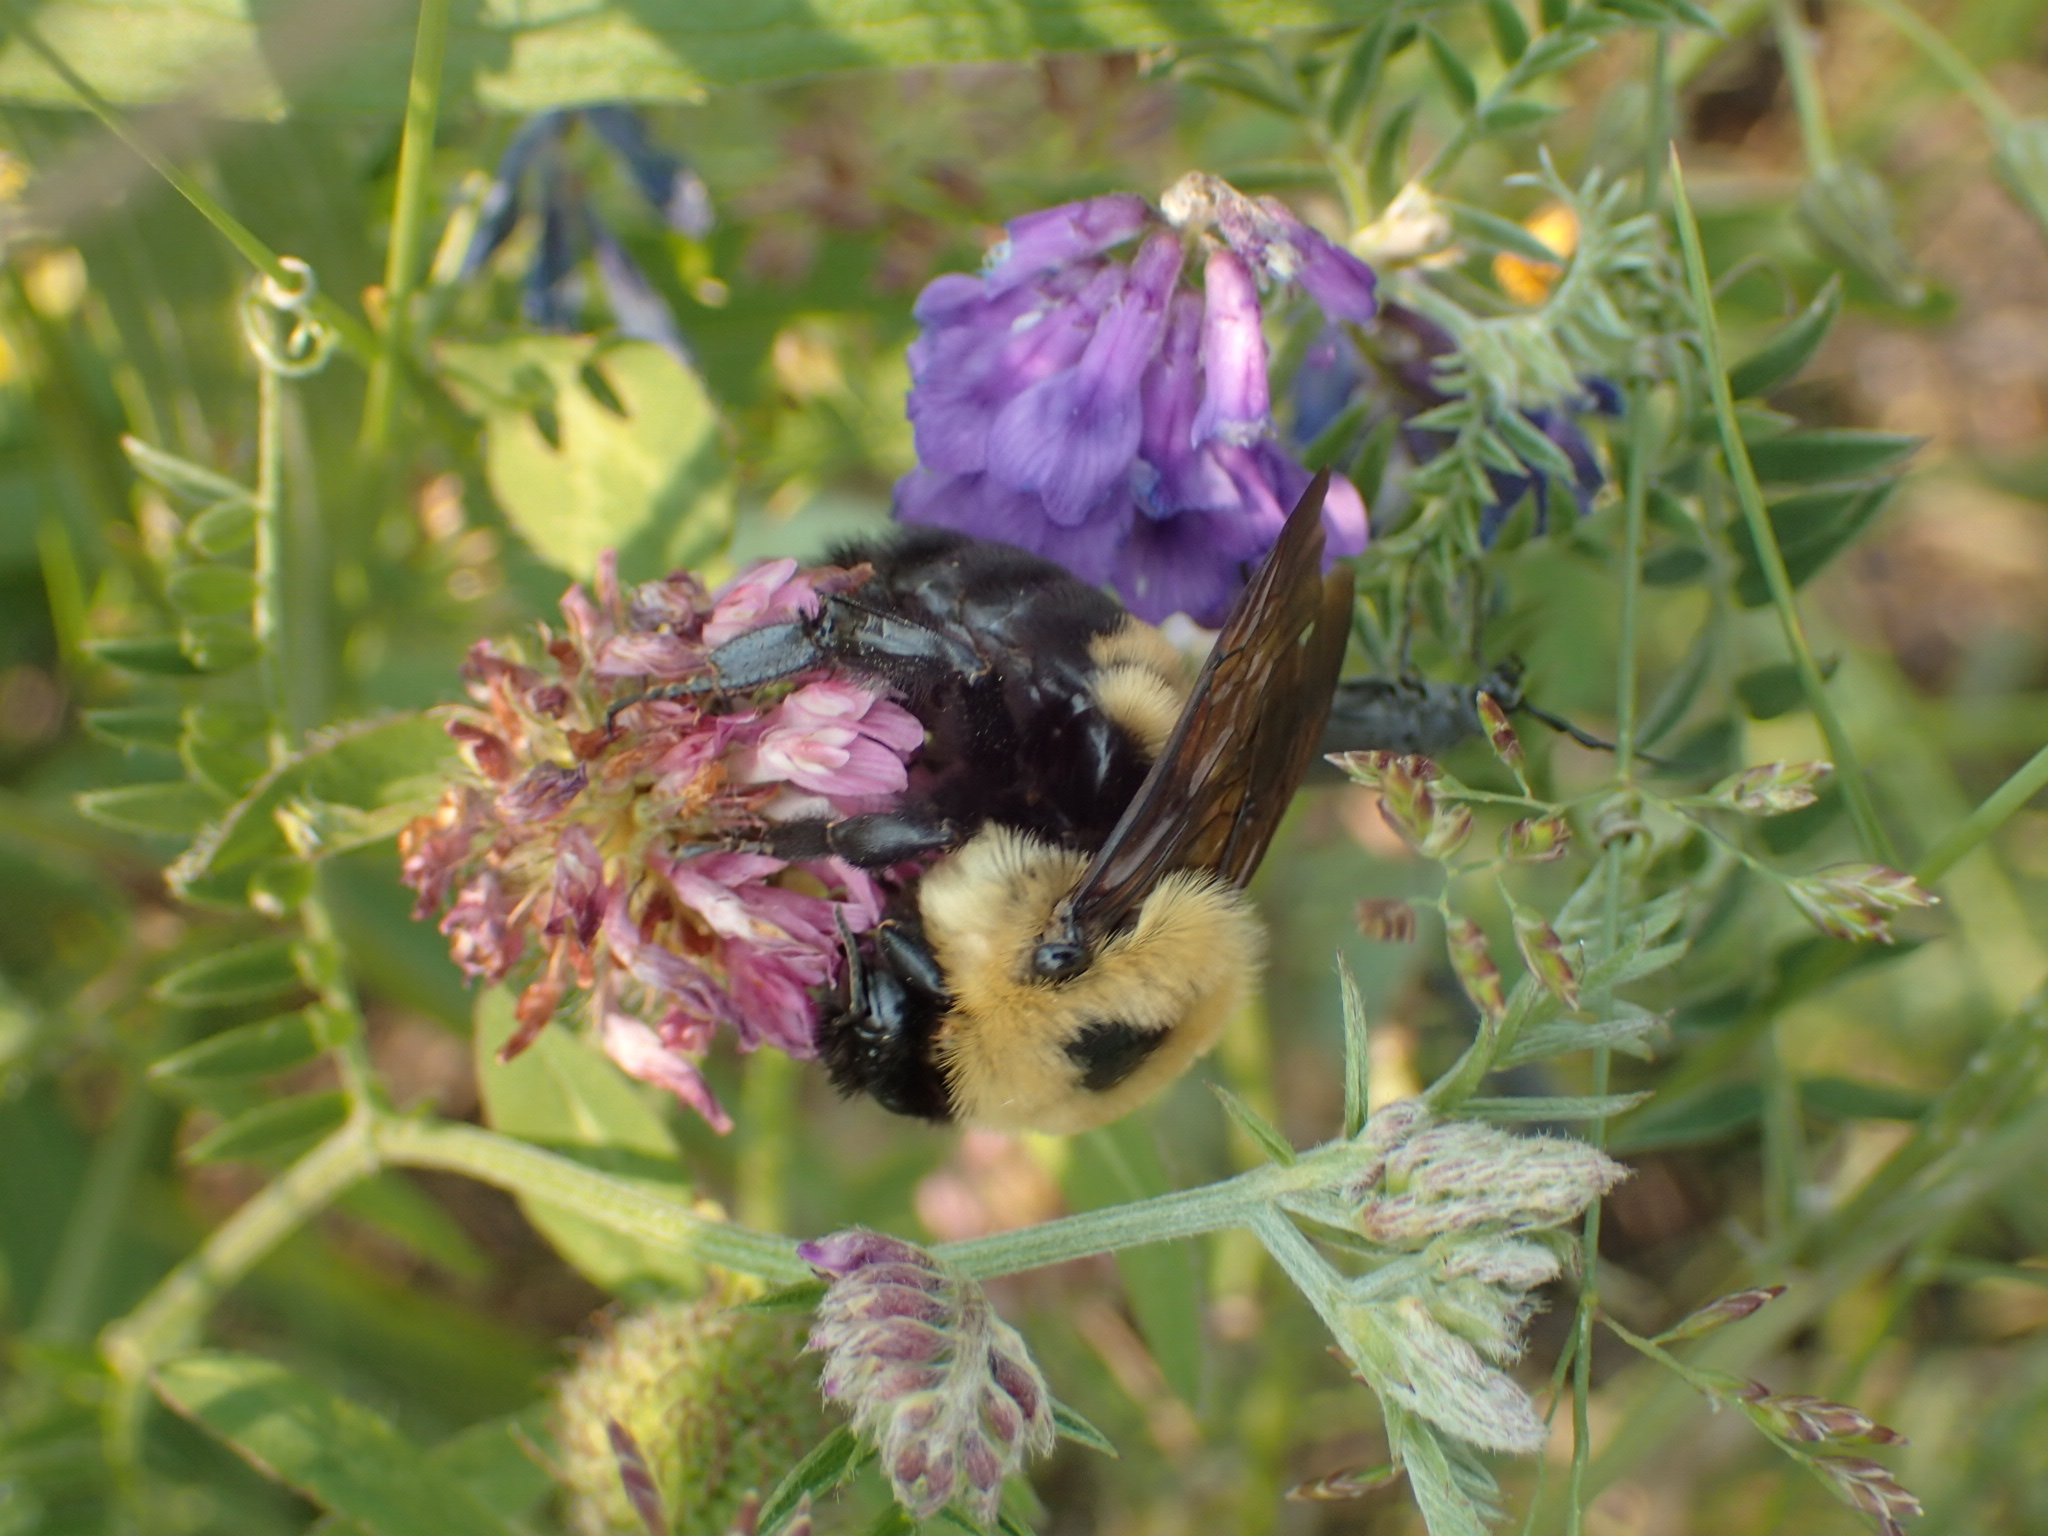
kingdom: Animalia
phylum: Arthropoda
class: Insecta
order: Hymenoptera
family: Apidae
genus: Bombus
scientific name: Bombus griseocollis
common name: Brown-belted bumble bee
